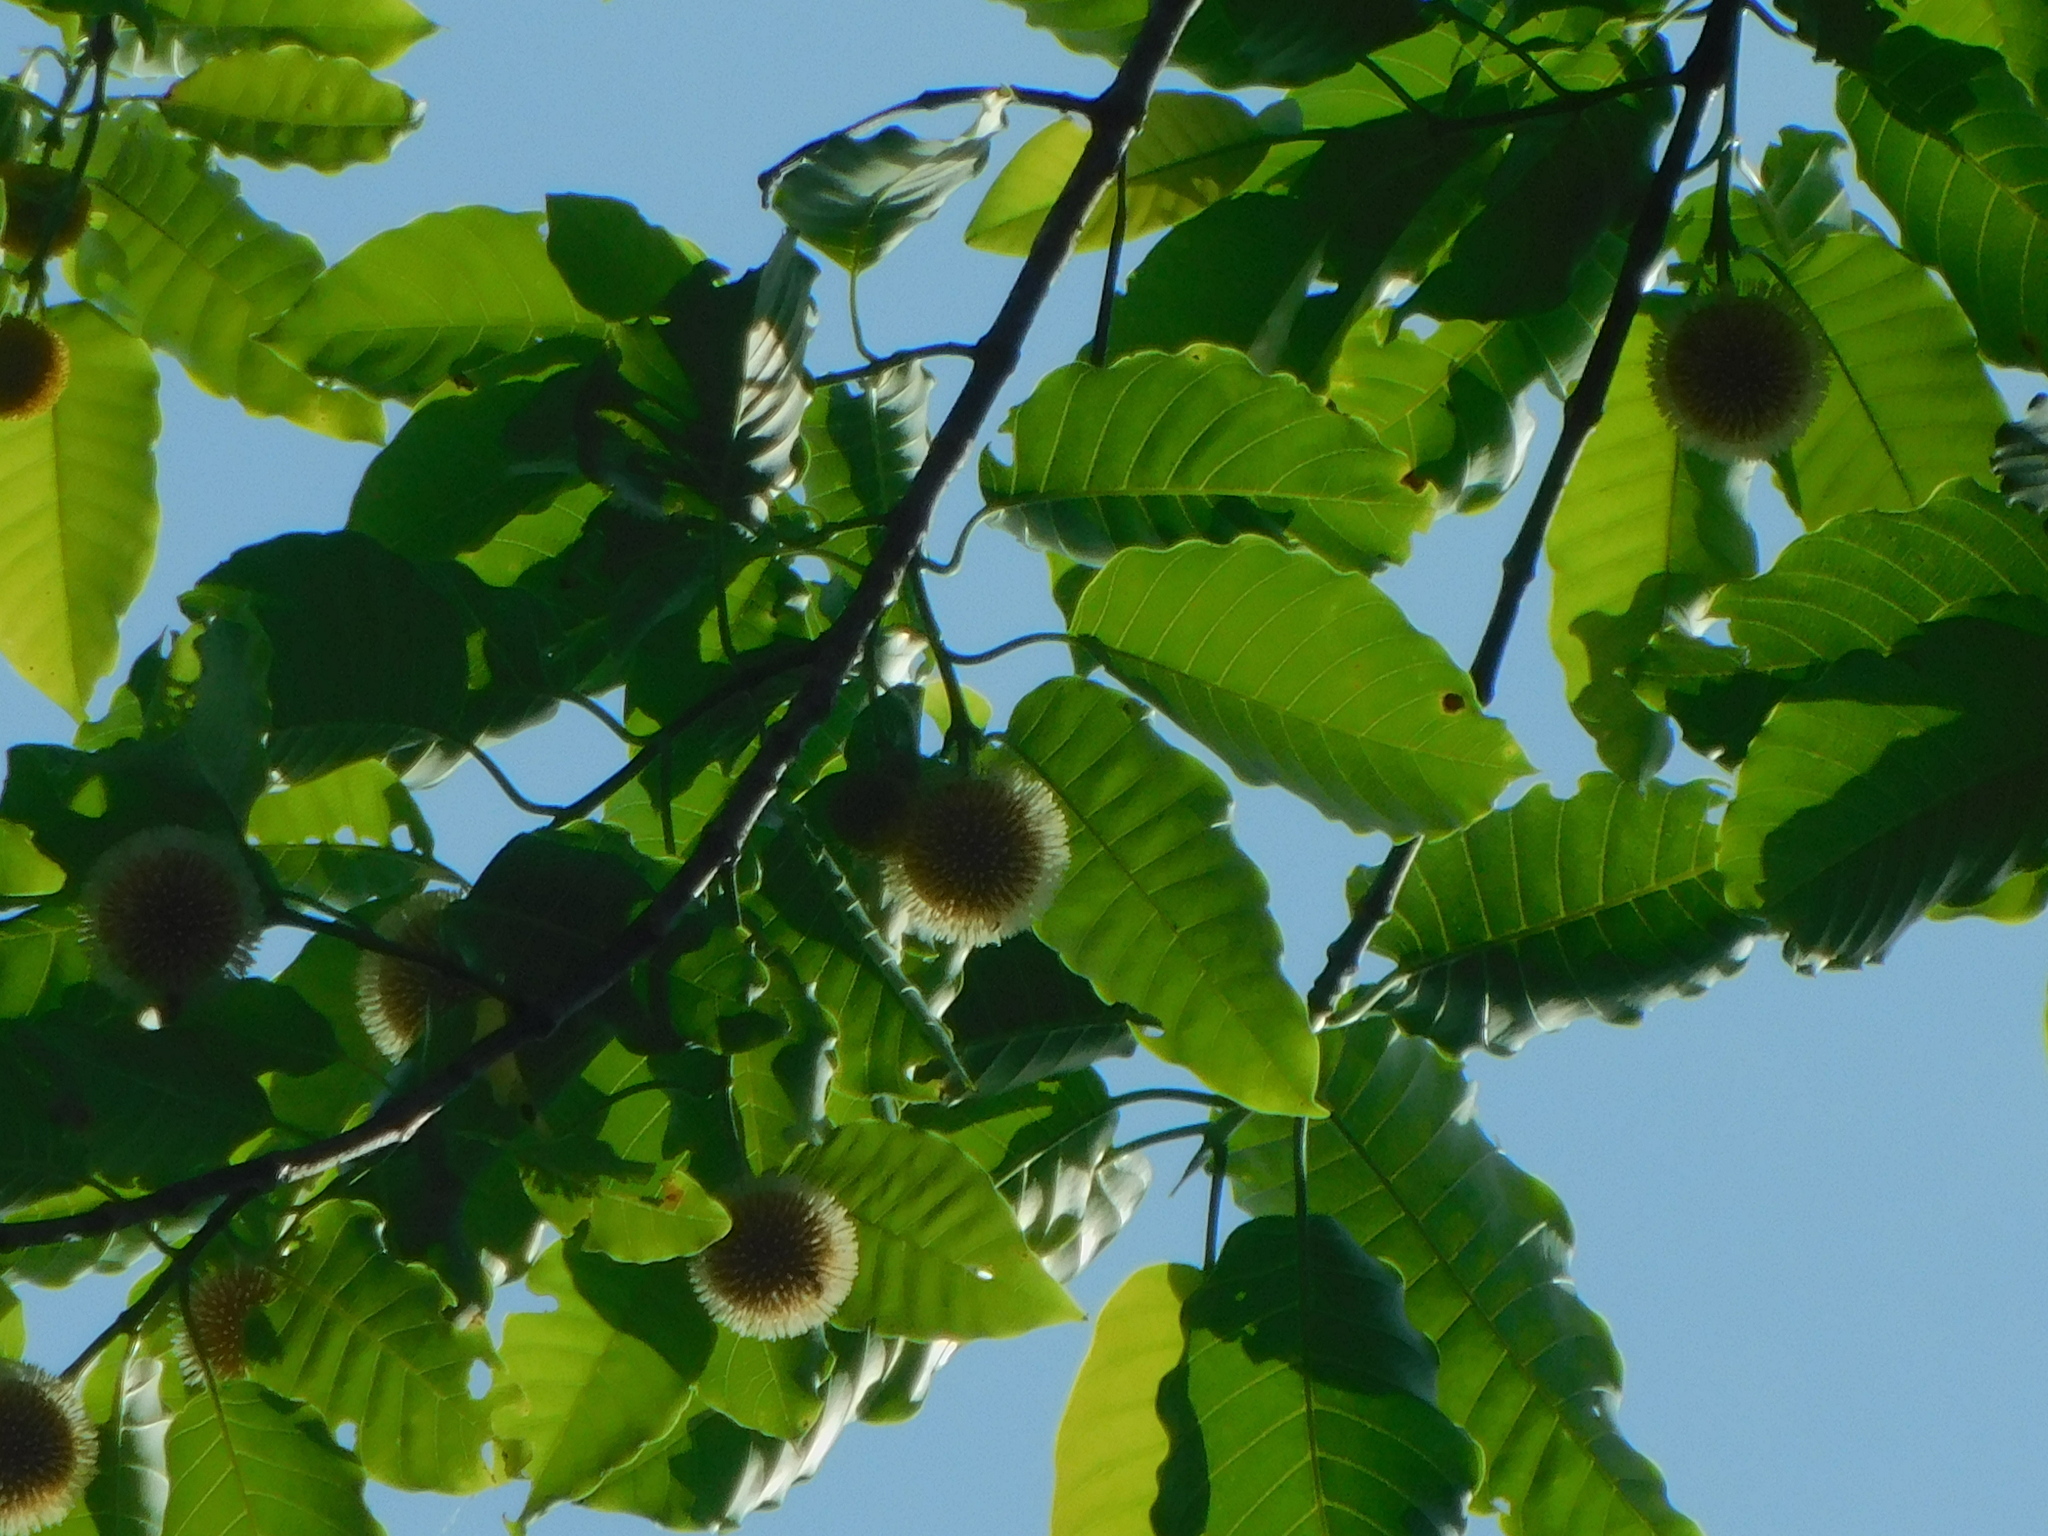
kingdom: Plantae
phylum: Tracheophyta
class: Magnoliopsida
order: Gentianales
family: Rubiaceae
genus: Neolamarckia
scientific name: Neolamarckia cadamba
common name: Leichhardt-pine
